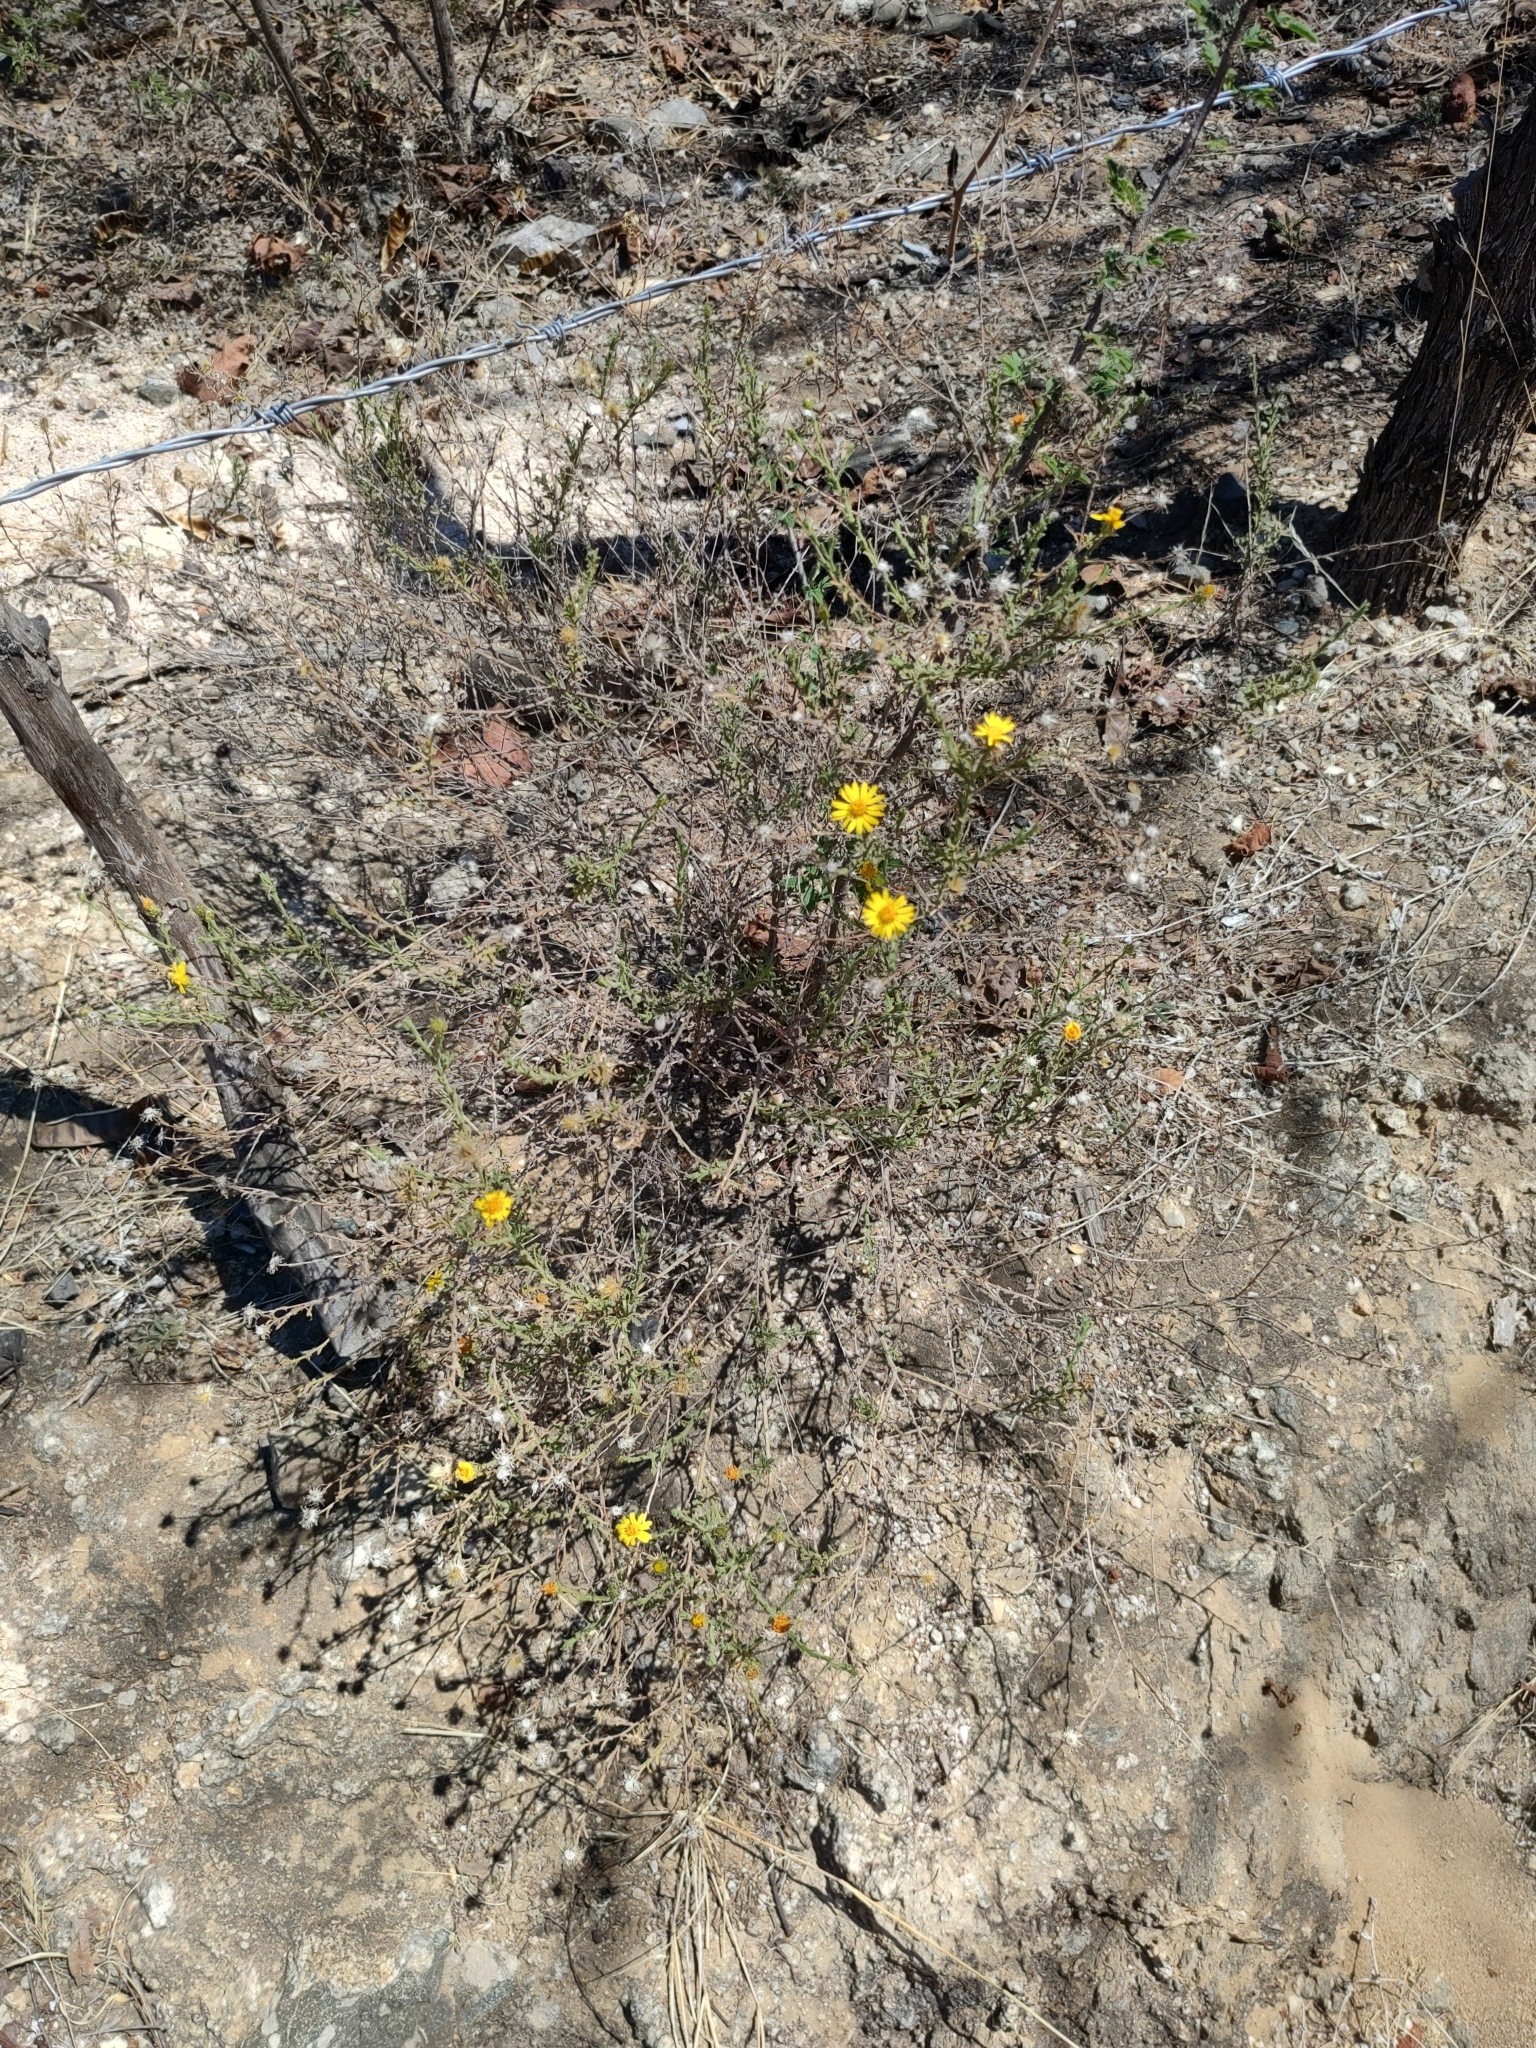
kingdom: Plantae
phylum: Tracheophyta
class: Magnoliopsida
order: Asterales
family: Asteraceae
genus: Xanthisma
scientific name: Xanthisma arenarium
